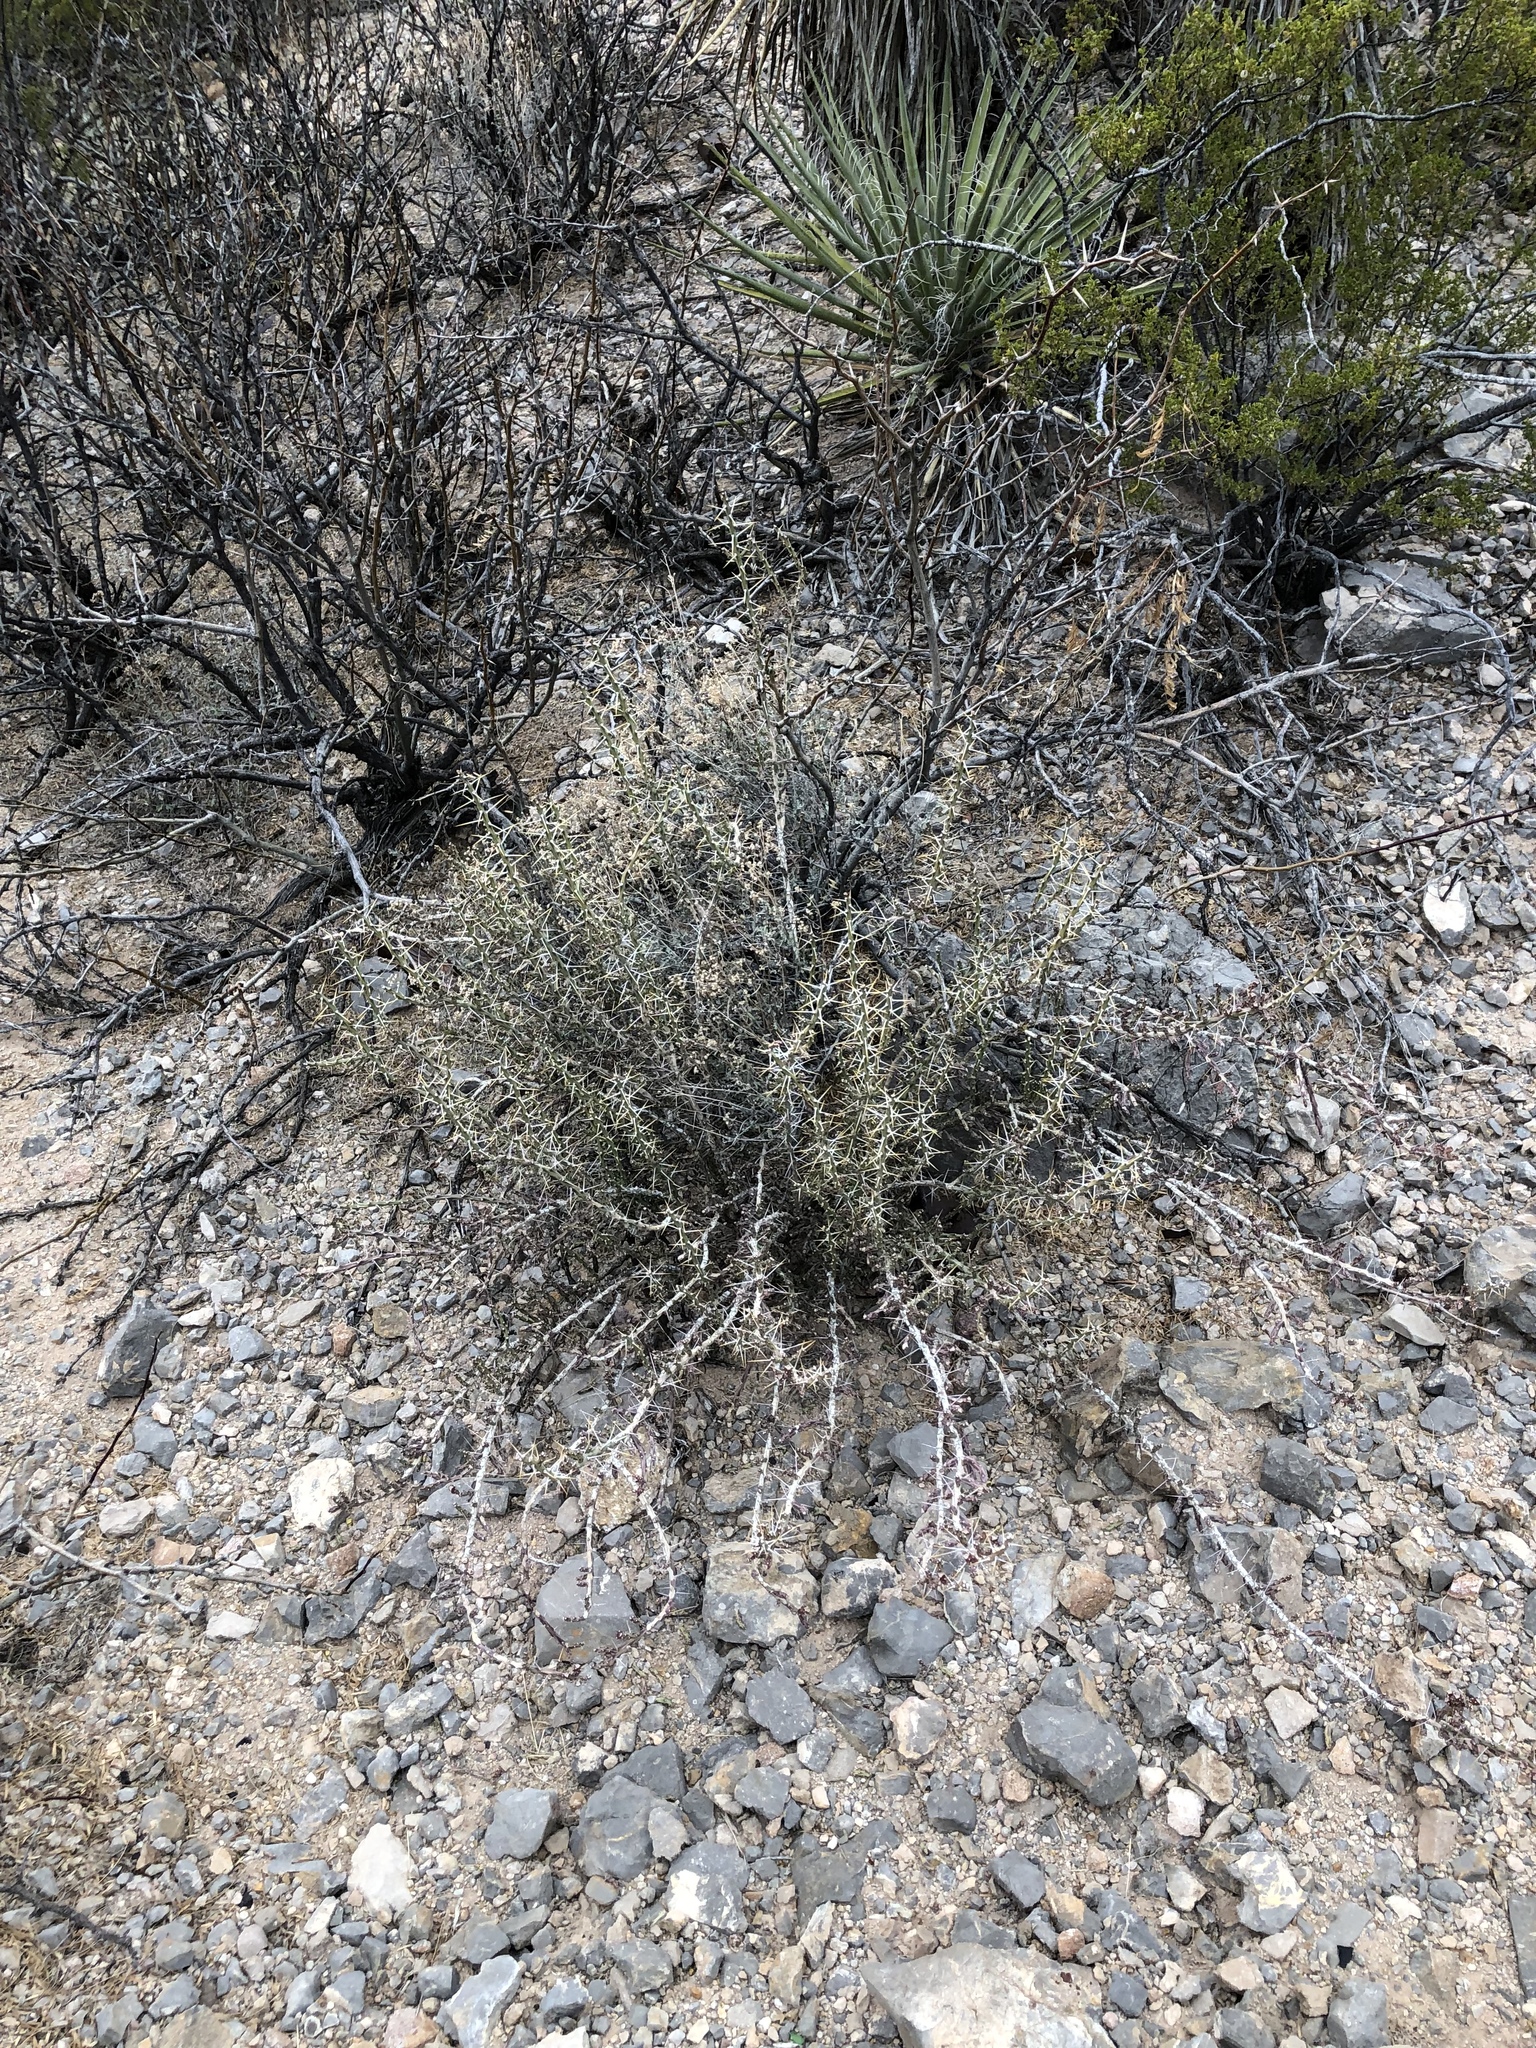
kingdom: Plantae
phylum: Tracheophyta
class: Magnoliopsida
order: Caryophyllales
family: Cactaceae
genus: Cylindropuntia
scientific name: Cylindropuntia leptocaulis
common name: Christmas cactus
